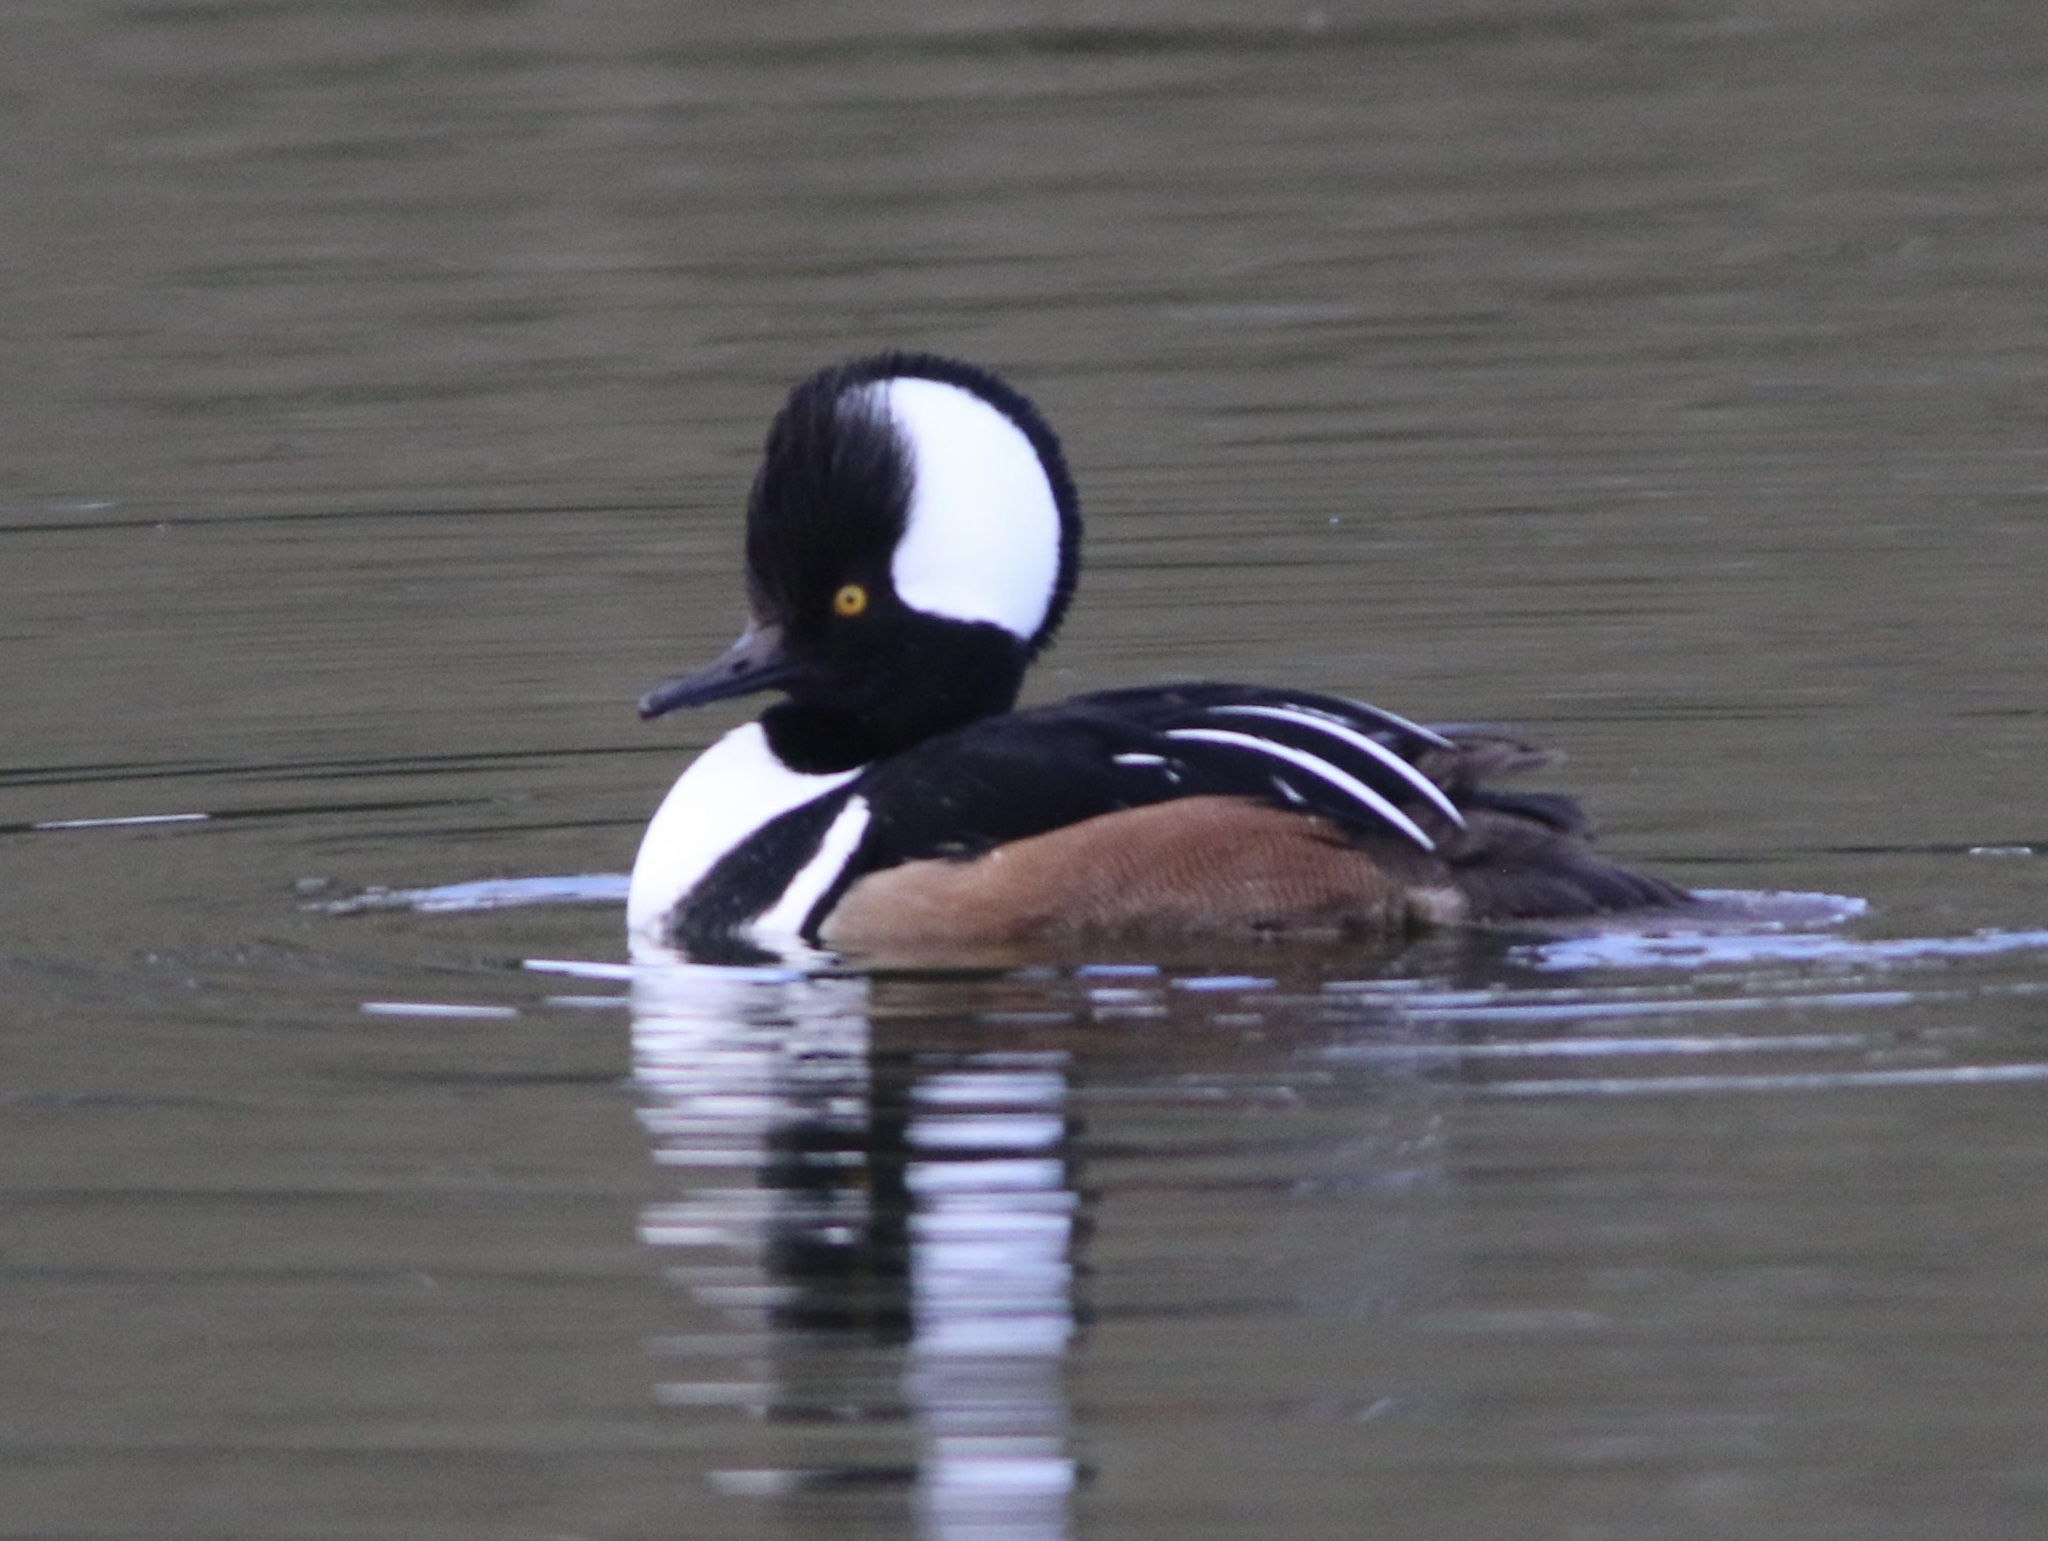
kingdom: Animalia
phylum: Chordata
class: Aves
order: Anseriformes
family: Anatidae
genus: Lophodytes
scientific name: Lophodytes cucullatus
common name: Hooded merganser
